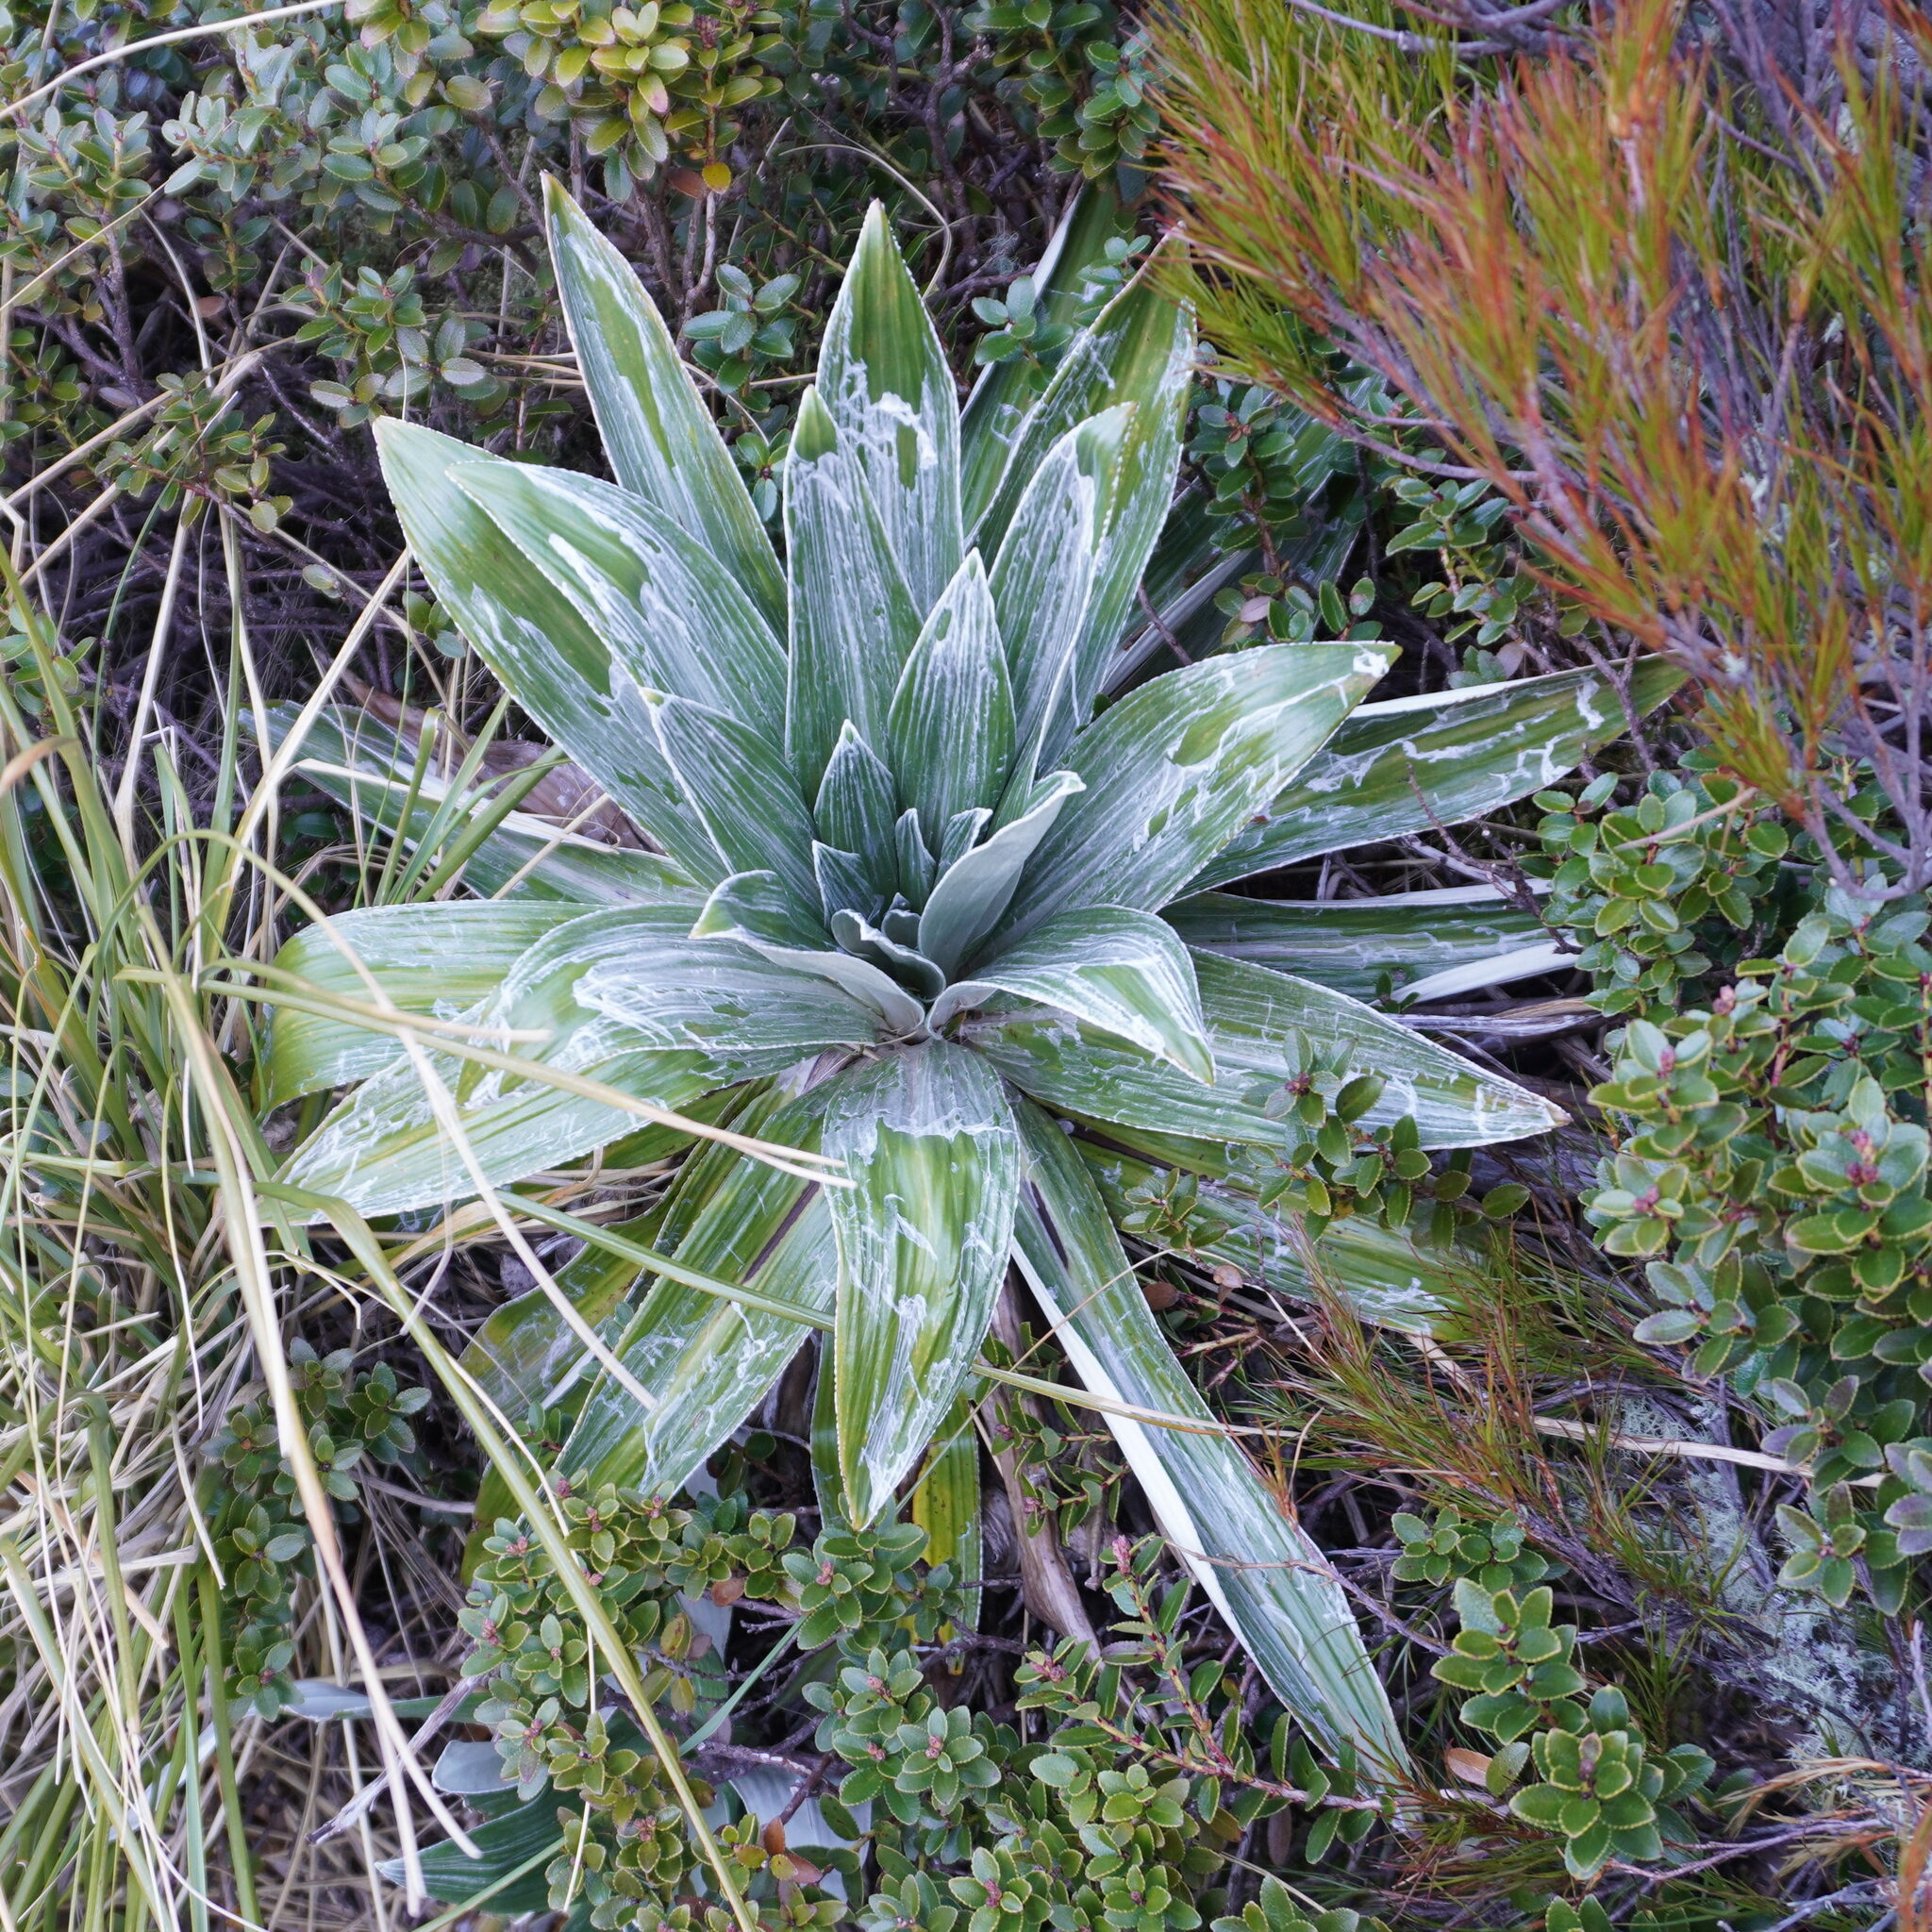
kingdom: Plantae
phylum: Tracheophyta
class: Magnoliopsida
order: Asterales
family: Asteraceae
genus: Celmisia
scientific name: Celmisia semicordata
